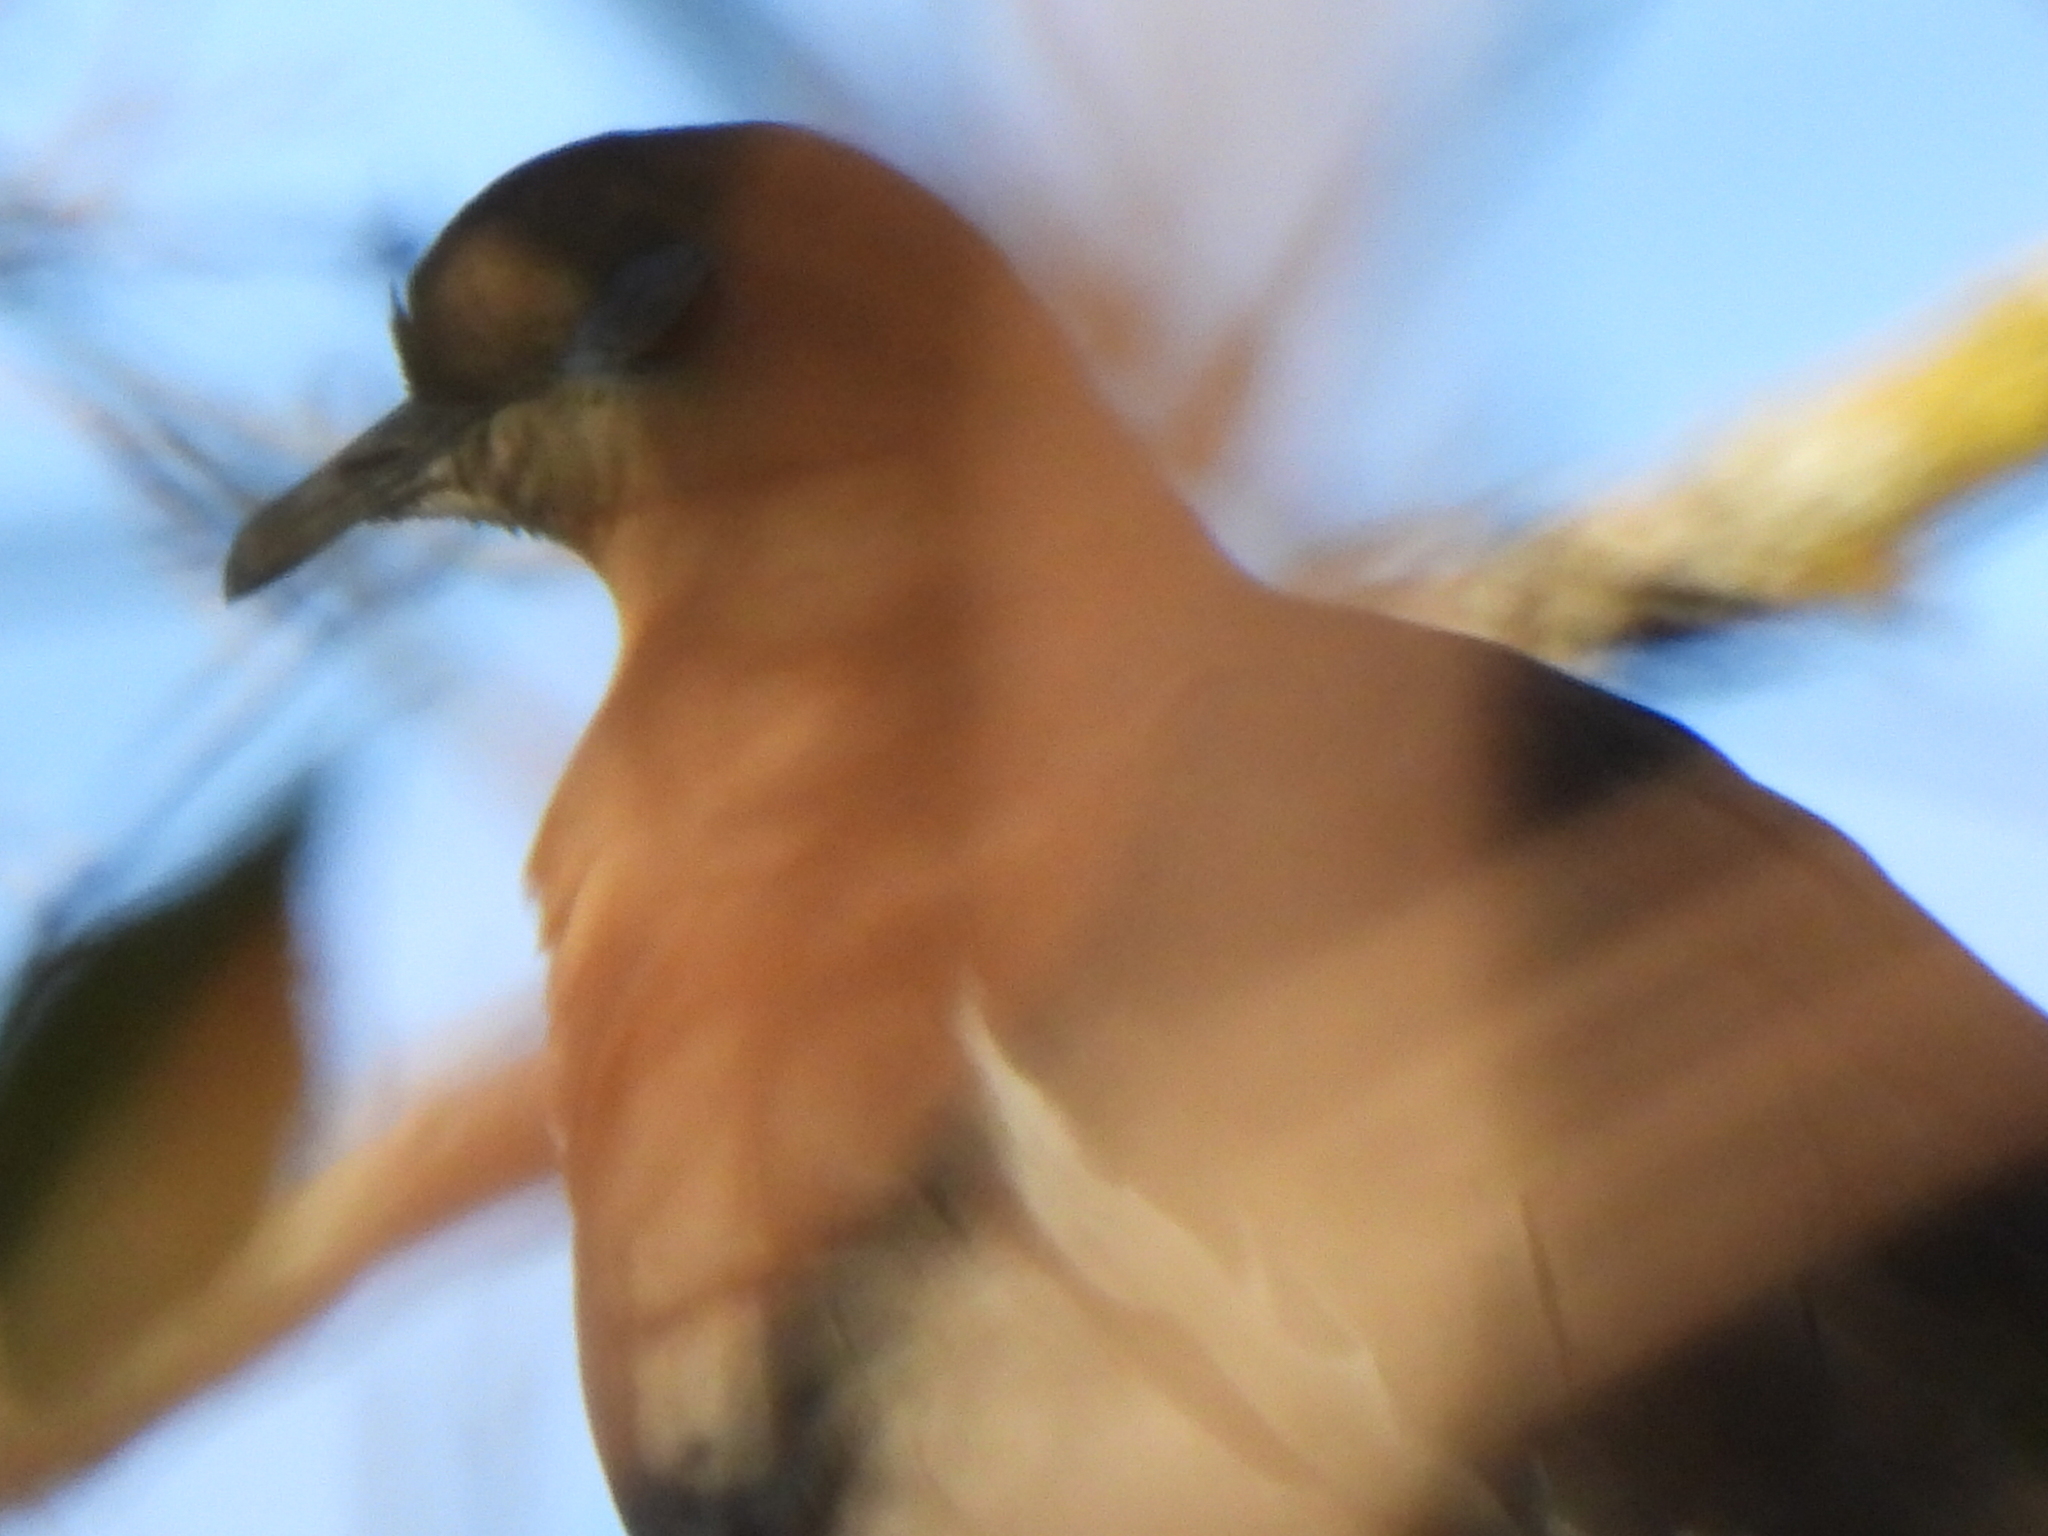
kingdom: Animalia
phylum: Chordata
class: Aves
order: Columbiformes
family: Columbidae
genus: Zenaida
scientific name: Zenaida asiatica
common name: White-winged dove
